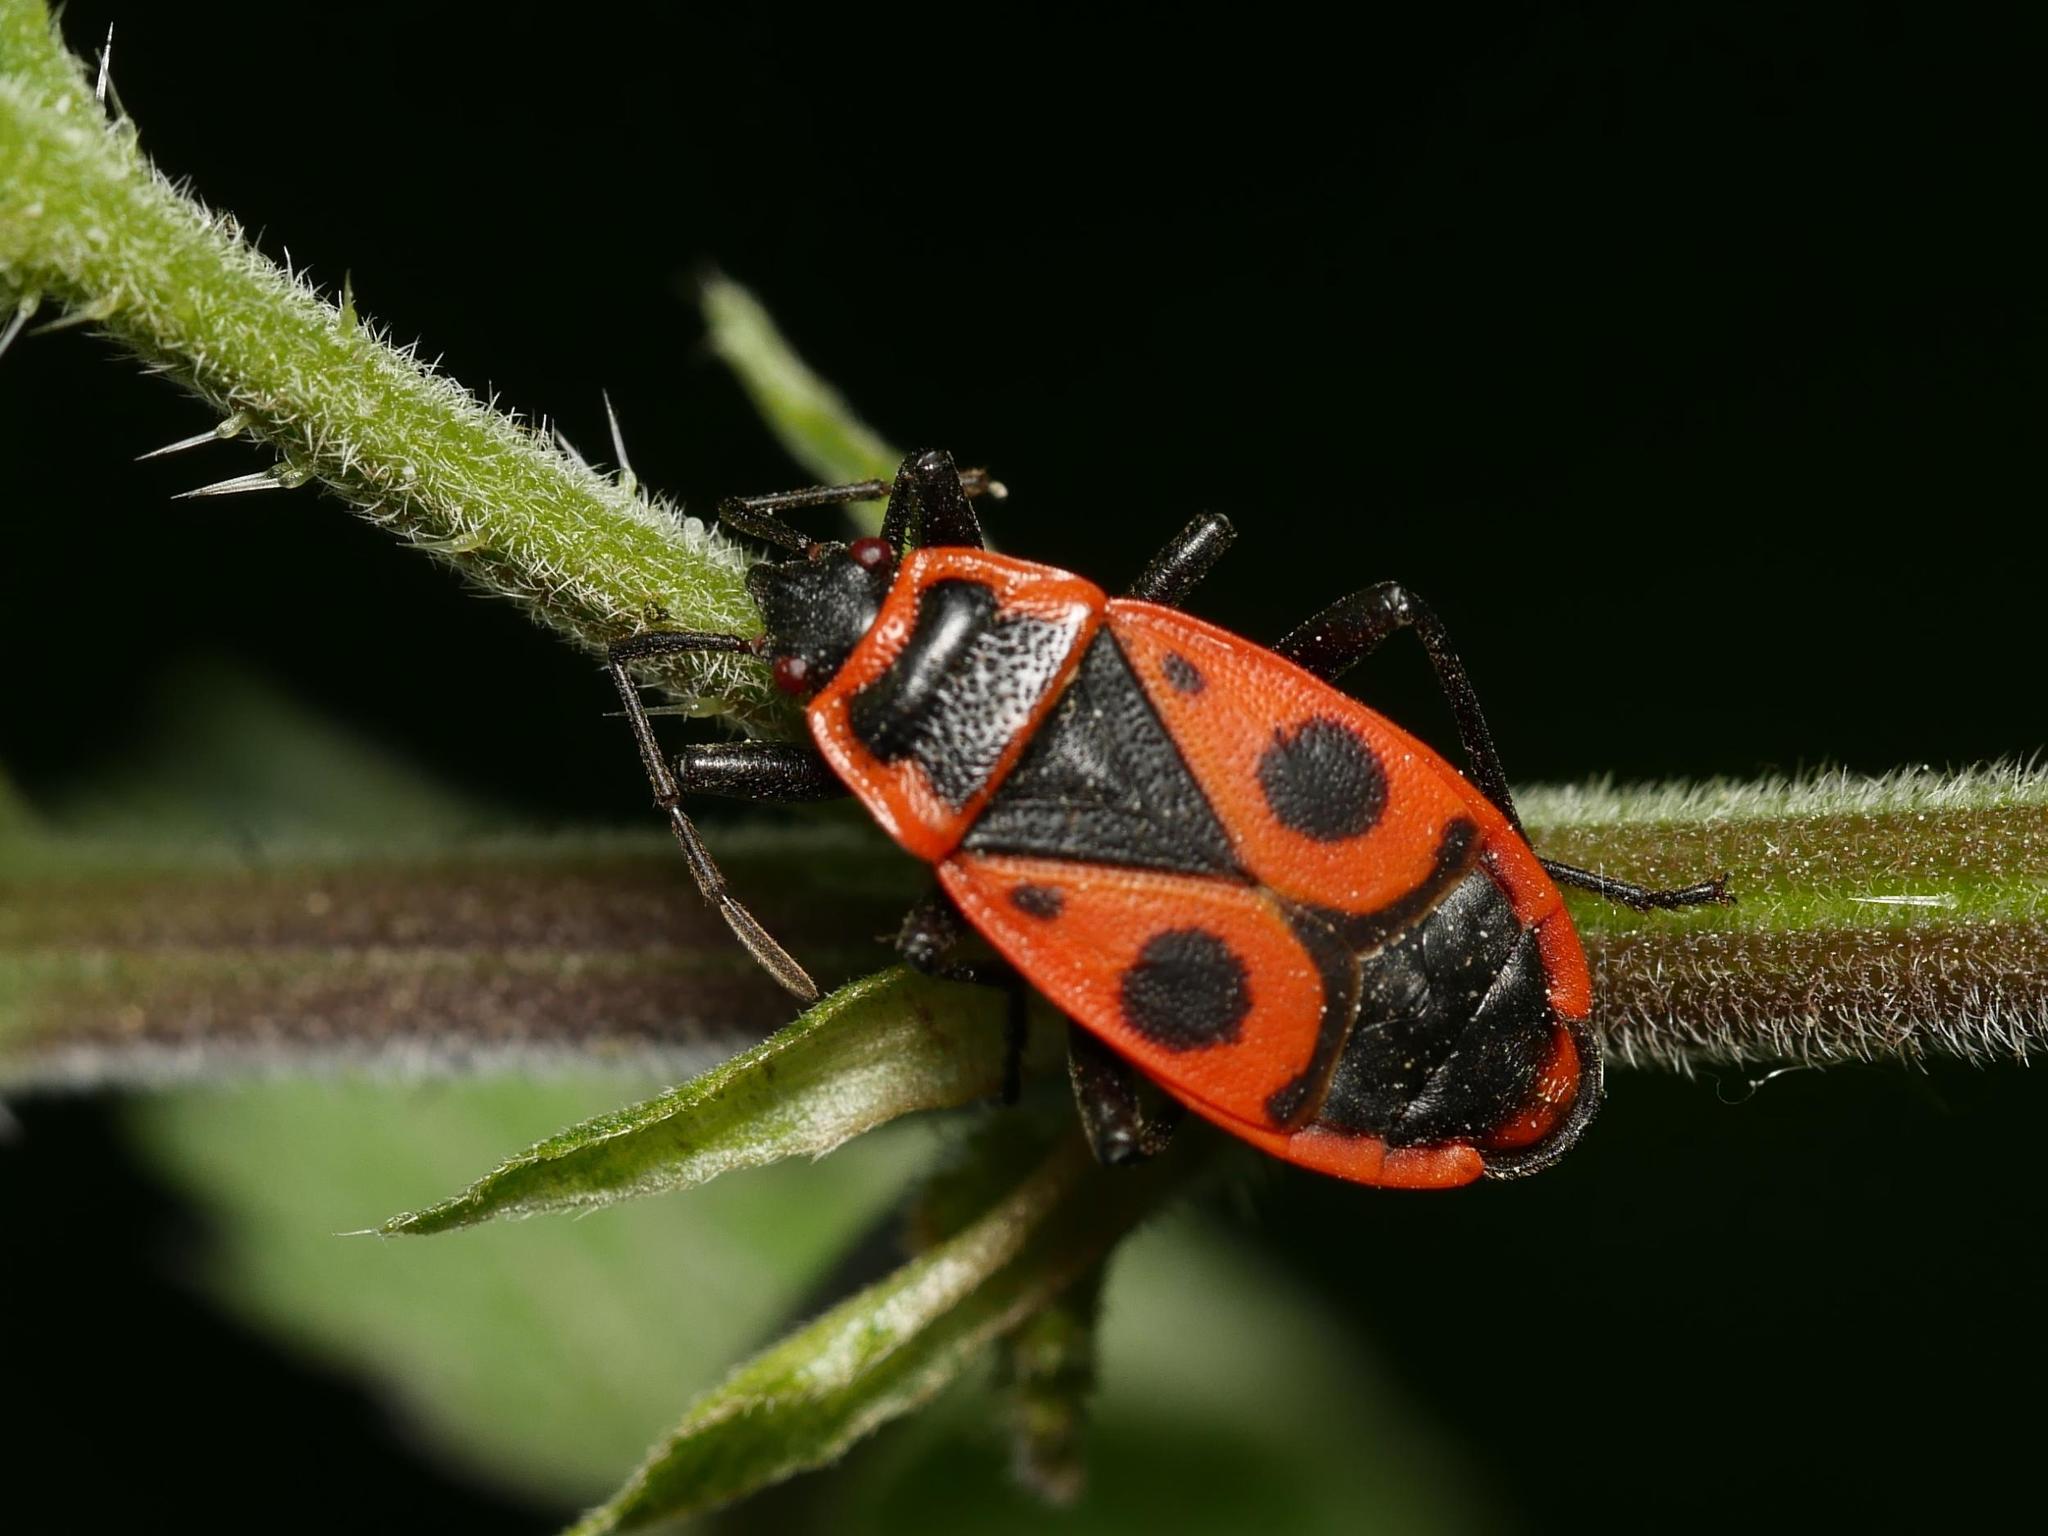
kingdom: Animalia
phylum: Arthropoda
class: Insecta
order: Hemiptera
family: Pyrrhocoridae
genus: Pyrrhocoris
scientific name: Pyrrhocoris apterus
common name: Firebug
